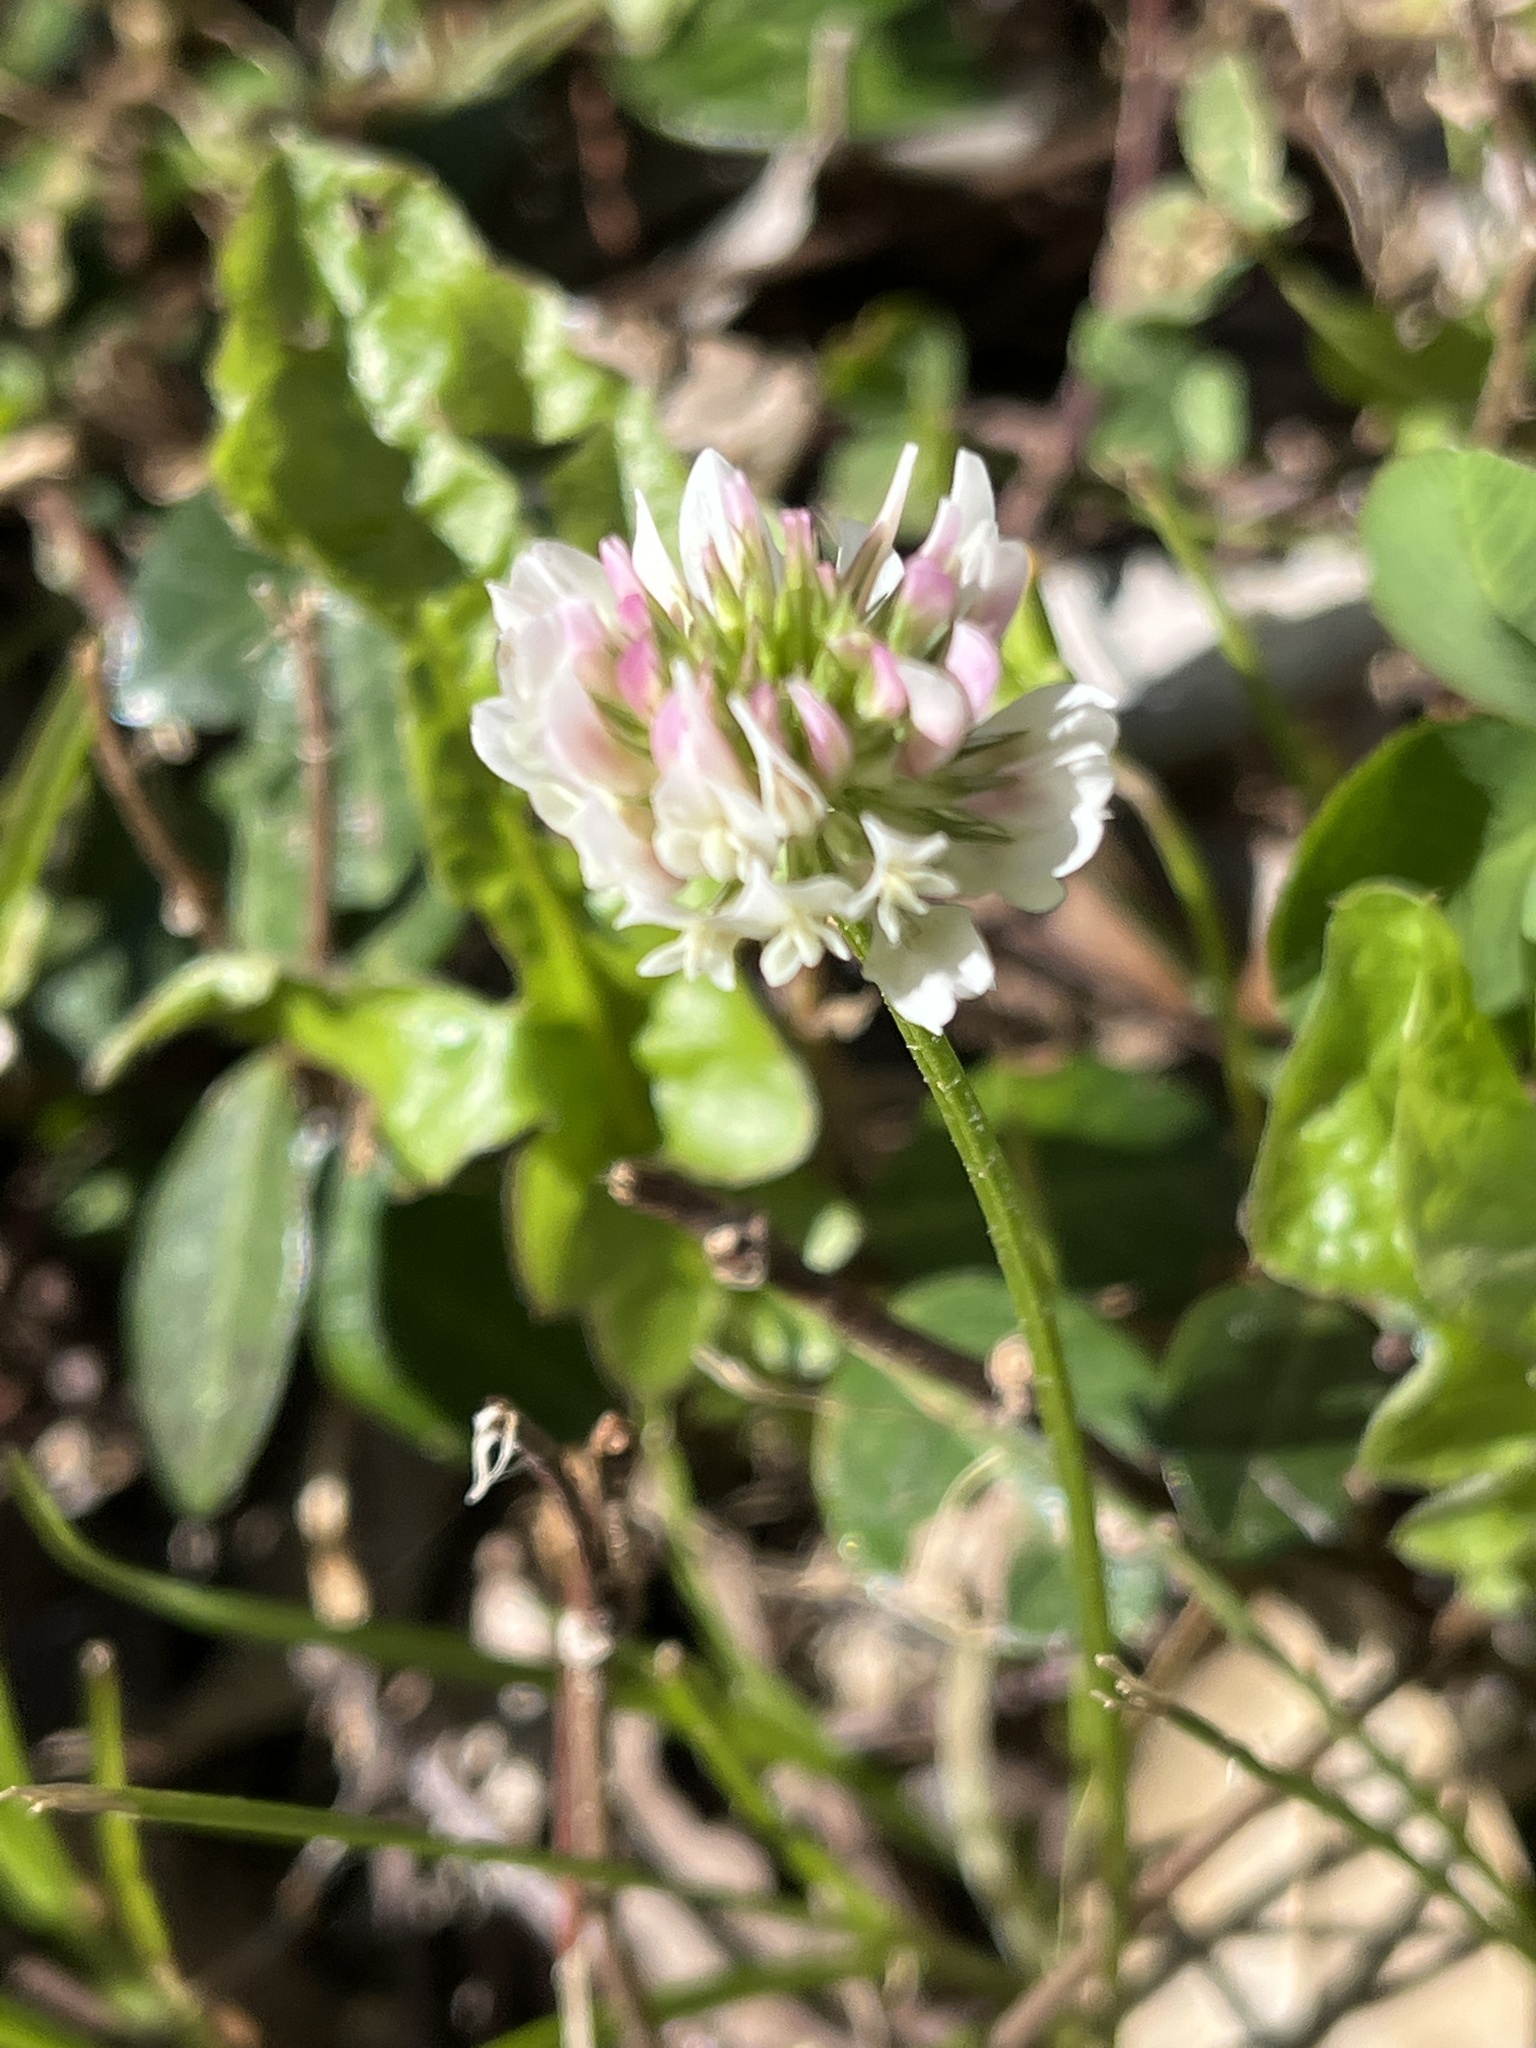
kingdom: Plantae
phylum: Tracheophyta
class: Magnoliopsida
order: Fabales
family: Fabaceae
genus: Trifolium
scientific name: Trifolium repens
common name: White clover
